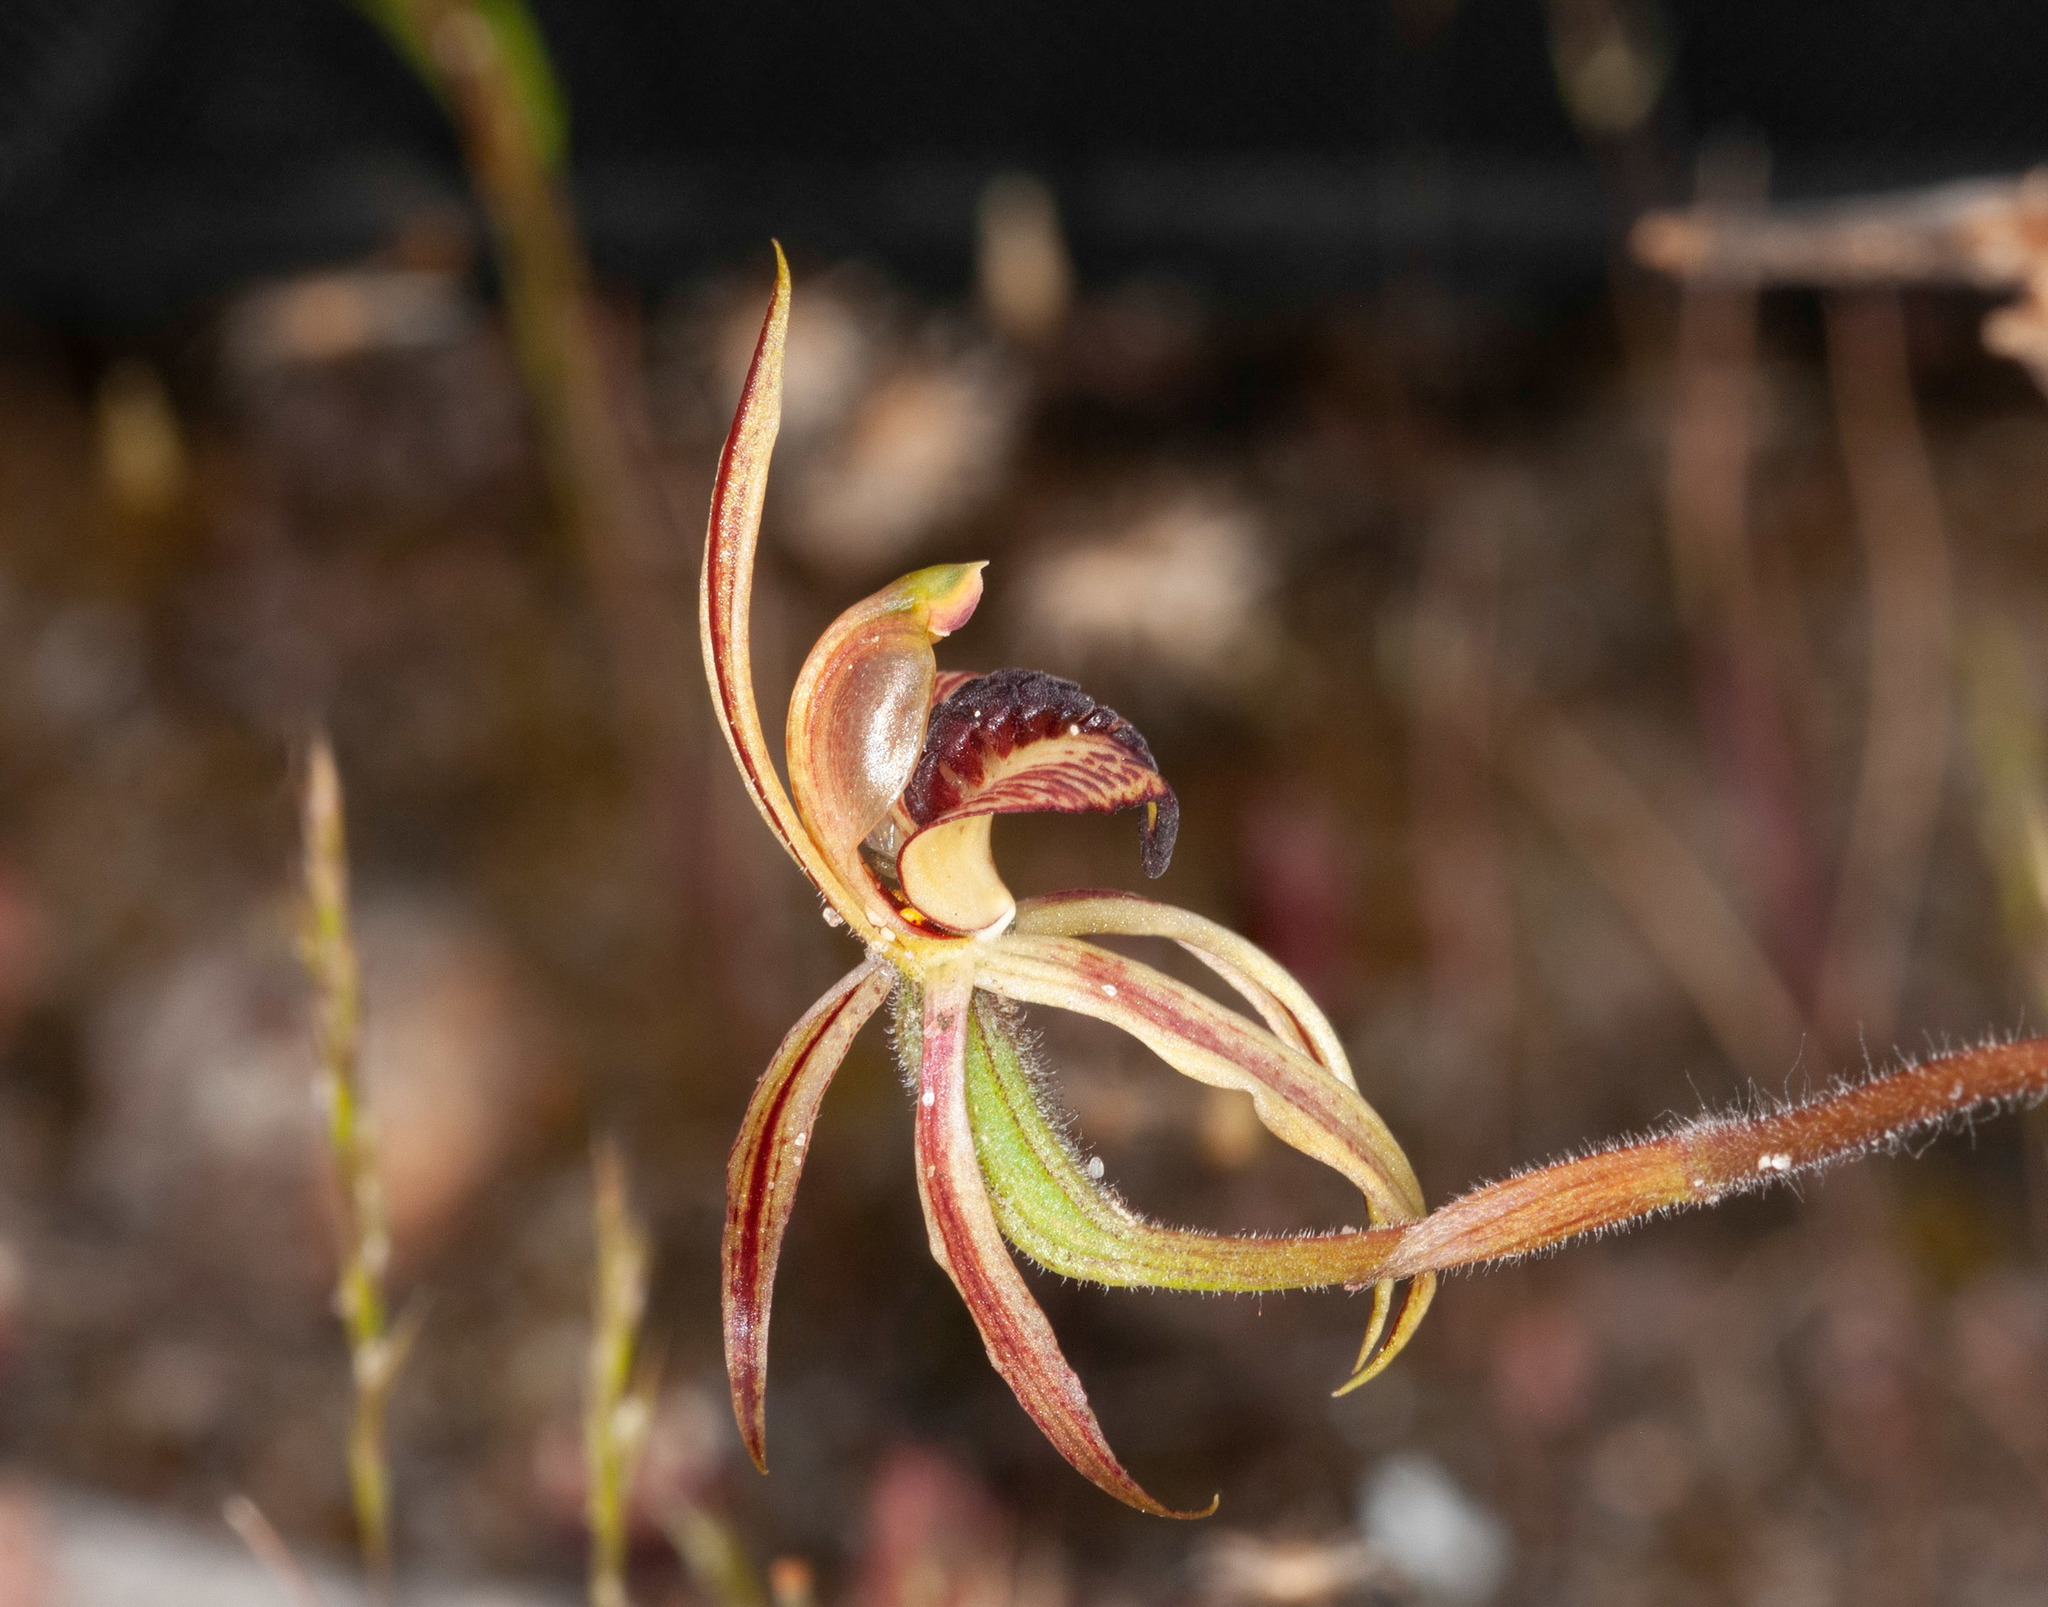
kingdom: Plantae
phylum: Tracheophyta
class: Liliopsida
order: Asparagales
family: Orchidaceae
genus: Caladenia
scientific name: Caladenia cardiochila
